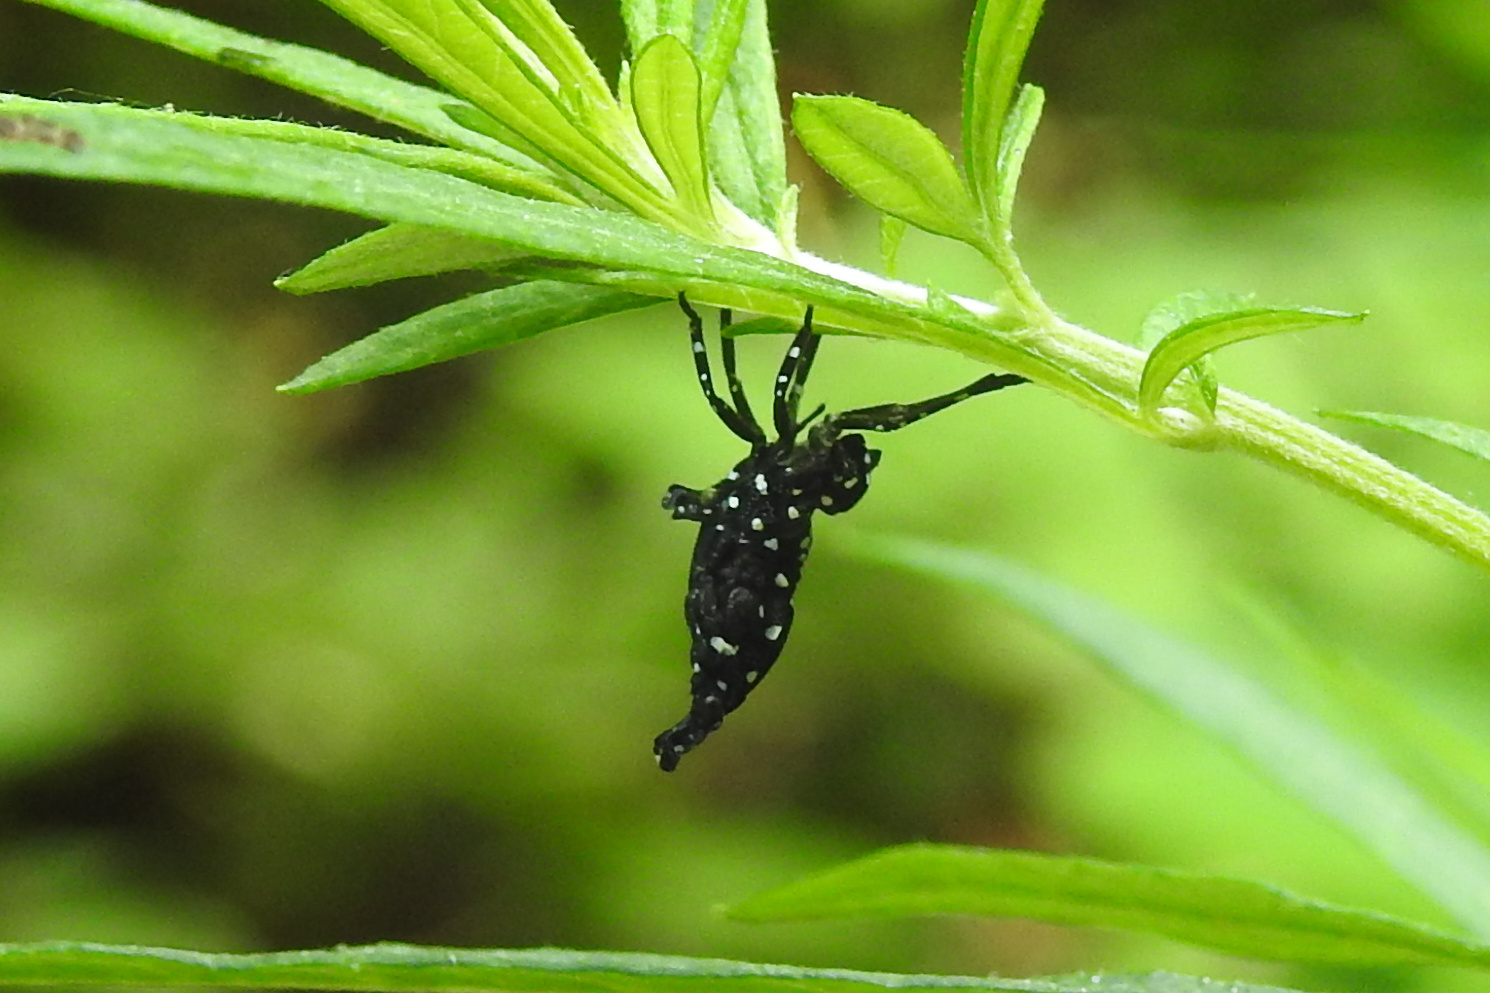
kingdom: Animalia
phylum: Arthropoda
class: Insecta
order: Hemiptera
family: Fulgoridae
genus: Lycorma
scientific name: Lycorma delicatula
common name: Spotted lanternfly
